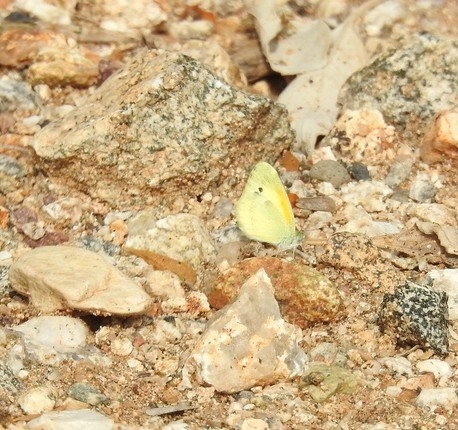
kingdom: Animalia
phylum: Arthropoda
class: Insecta
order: Lepidoptera
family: Pieridae
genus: Nathalis
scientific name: Nathalis iole
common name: Dainty sulphur
